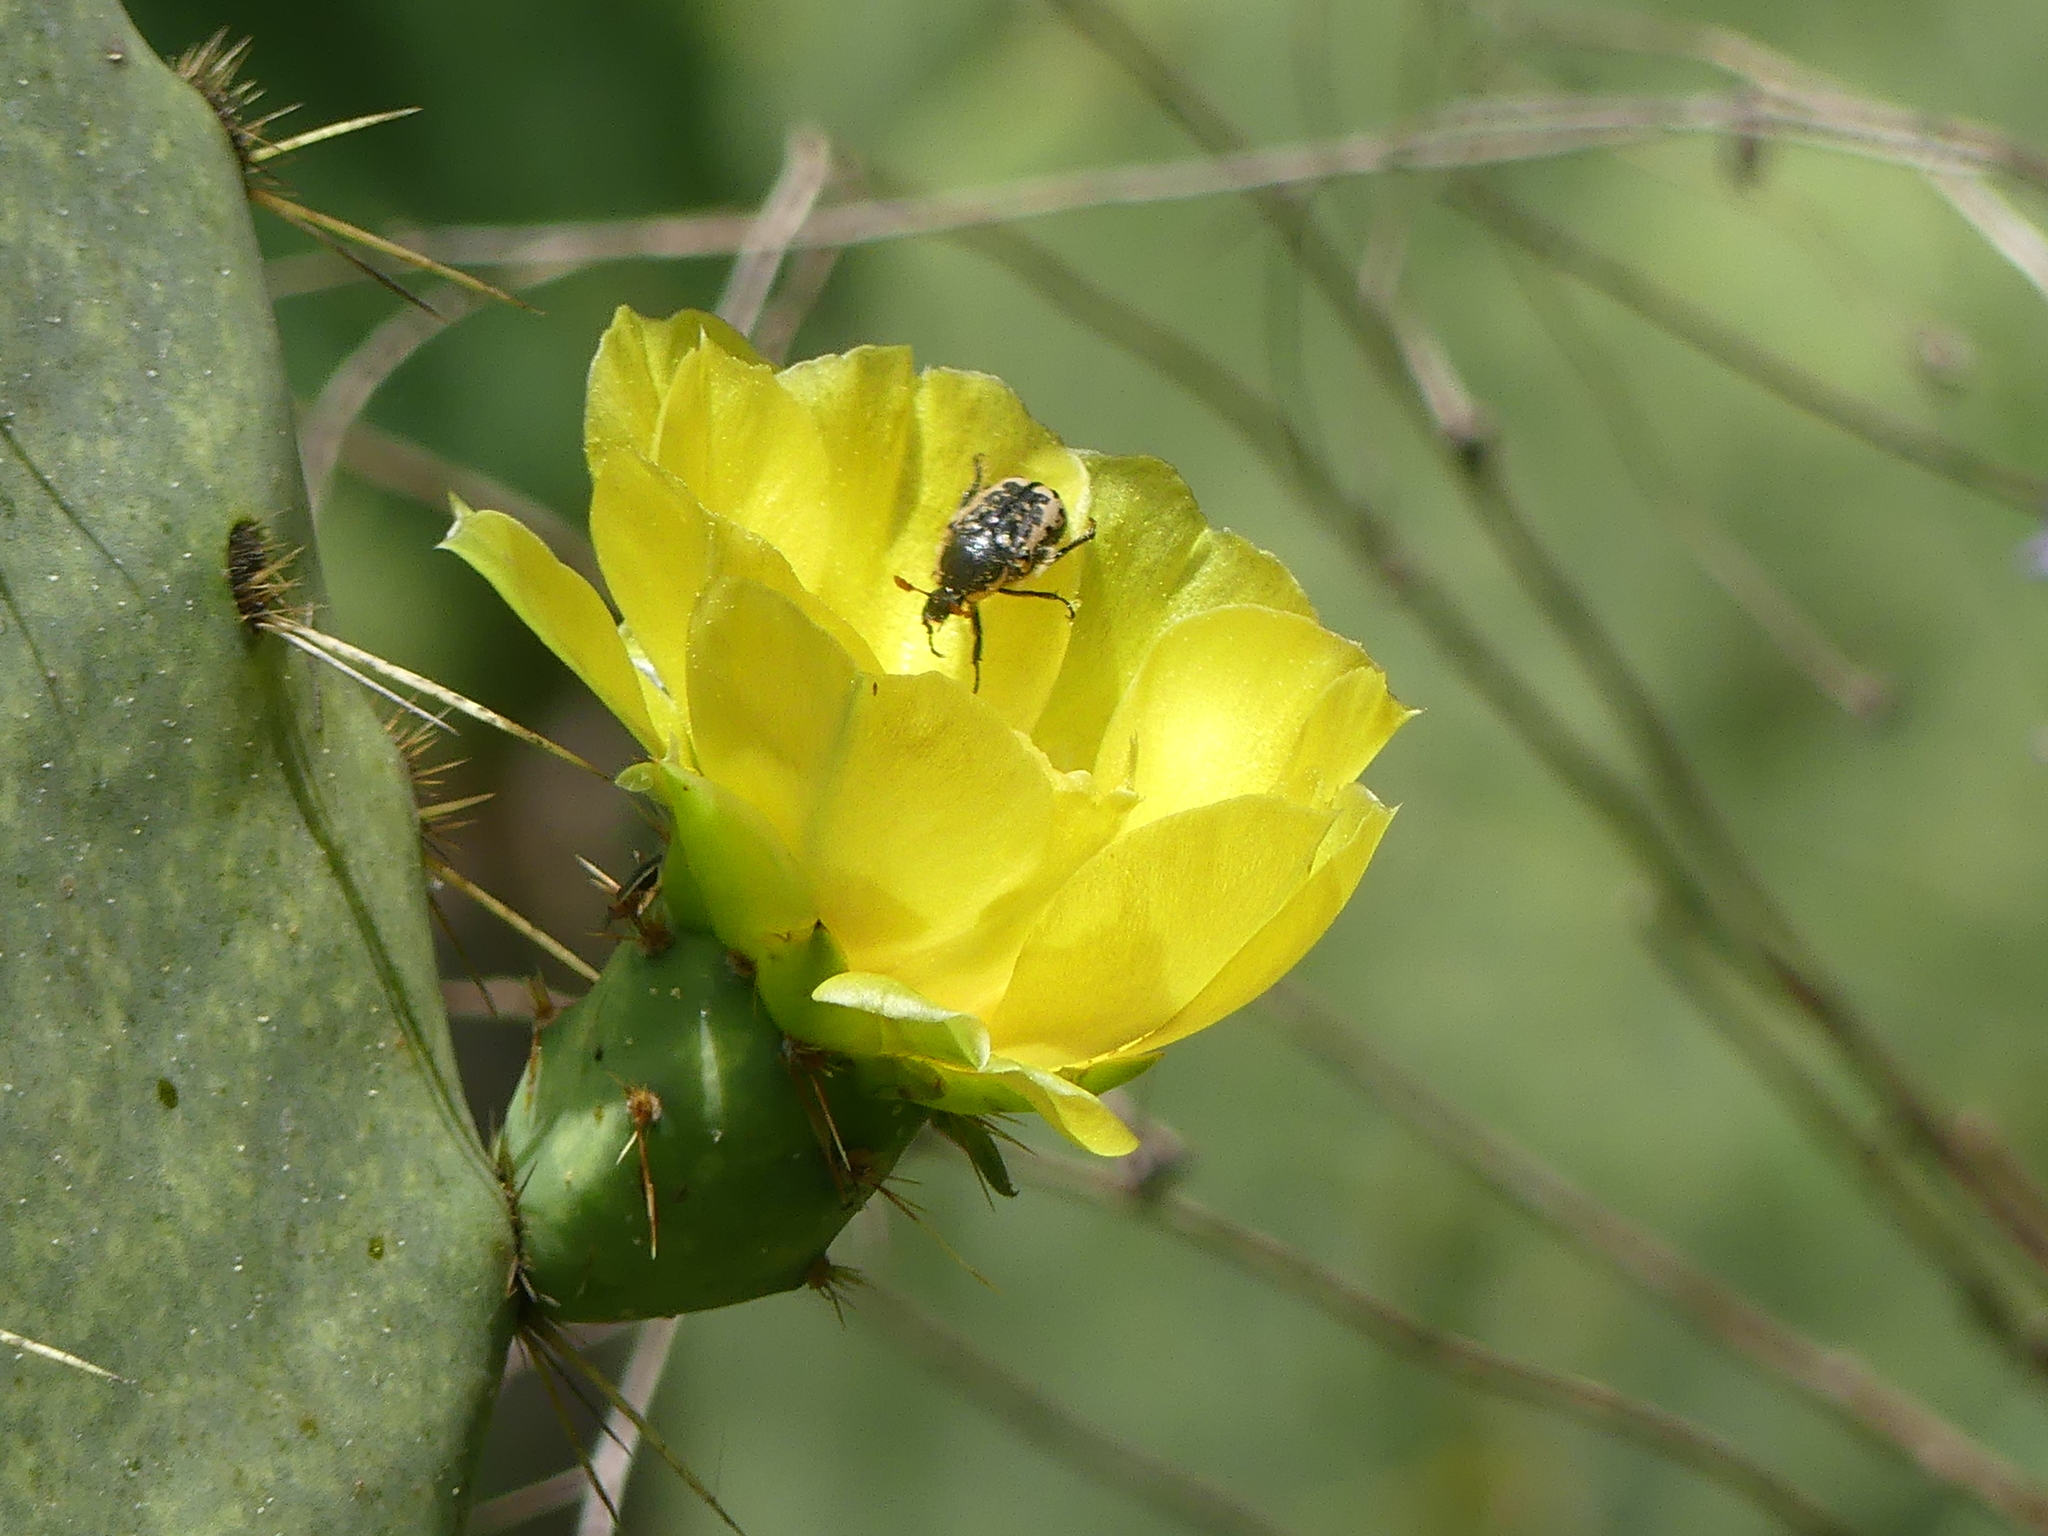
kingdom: Animalia
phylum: Arthropoda
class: Insecta
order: Coleoptera
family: Scarabaeidae
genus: Euphoria
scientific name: Euphoria kernii
